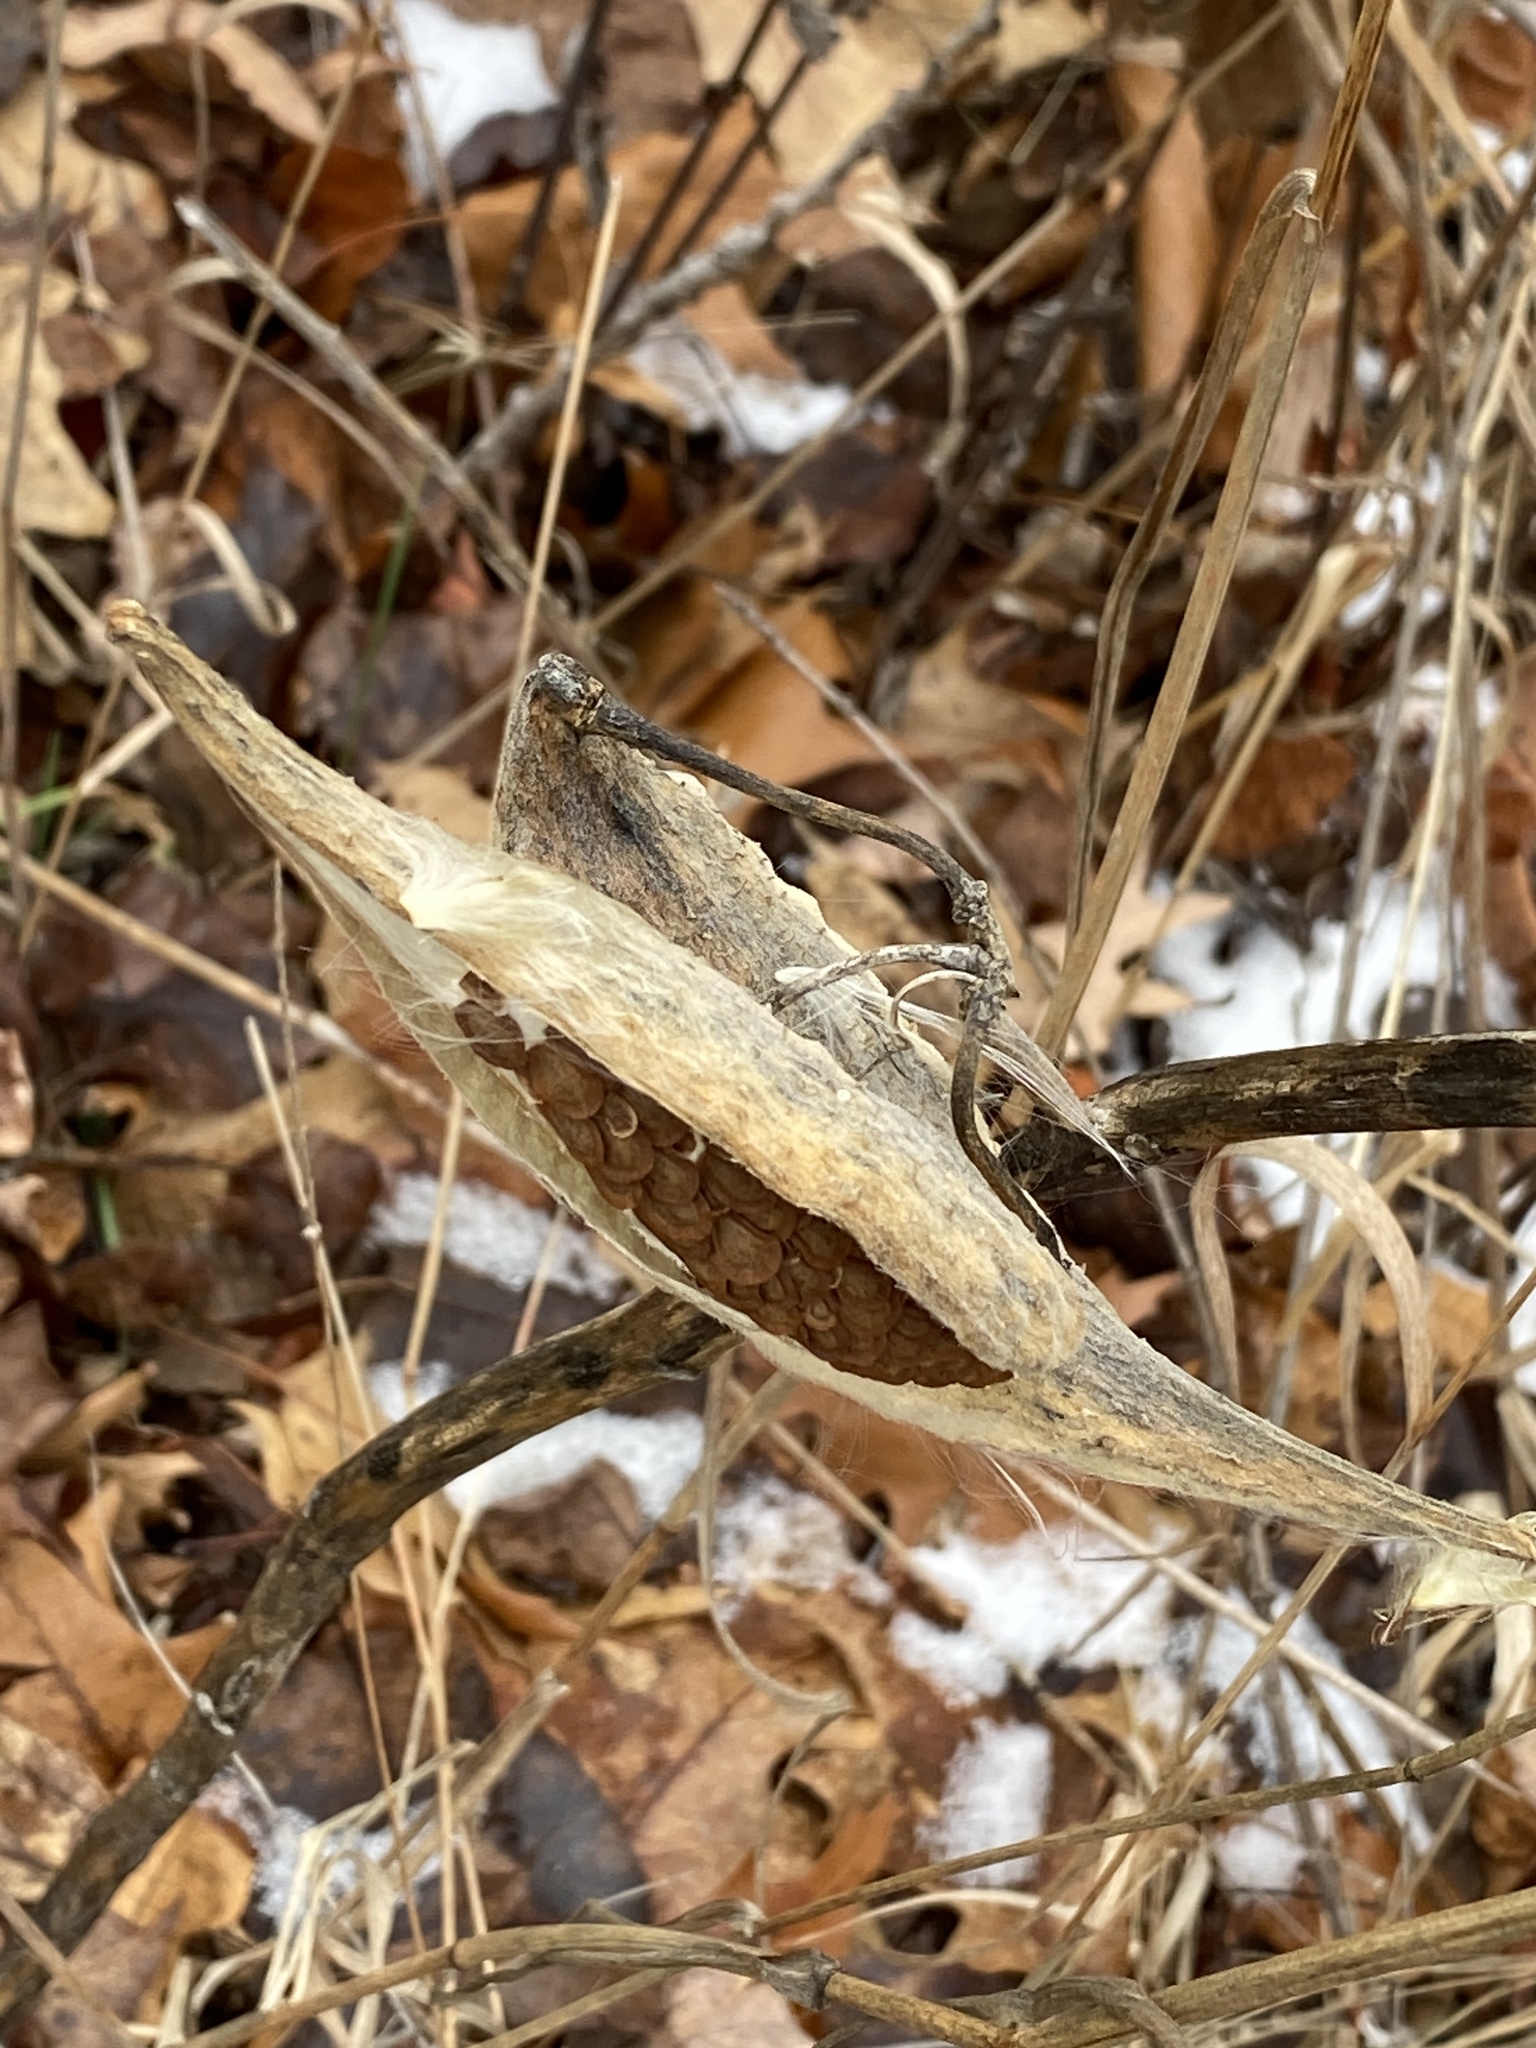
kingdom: Plantae
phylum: Tracheophyta
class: Magnoliopsida
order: Gentianales
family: Apocynaceae
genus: Asclepias
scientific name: Asclepias syriaca
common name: Common milkweed
